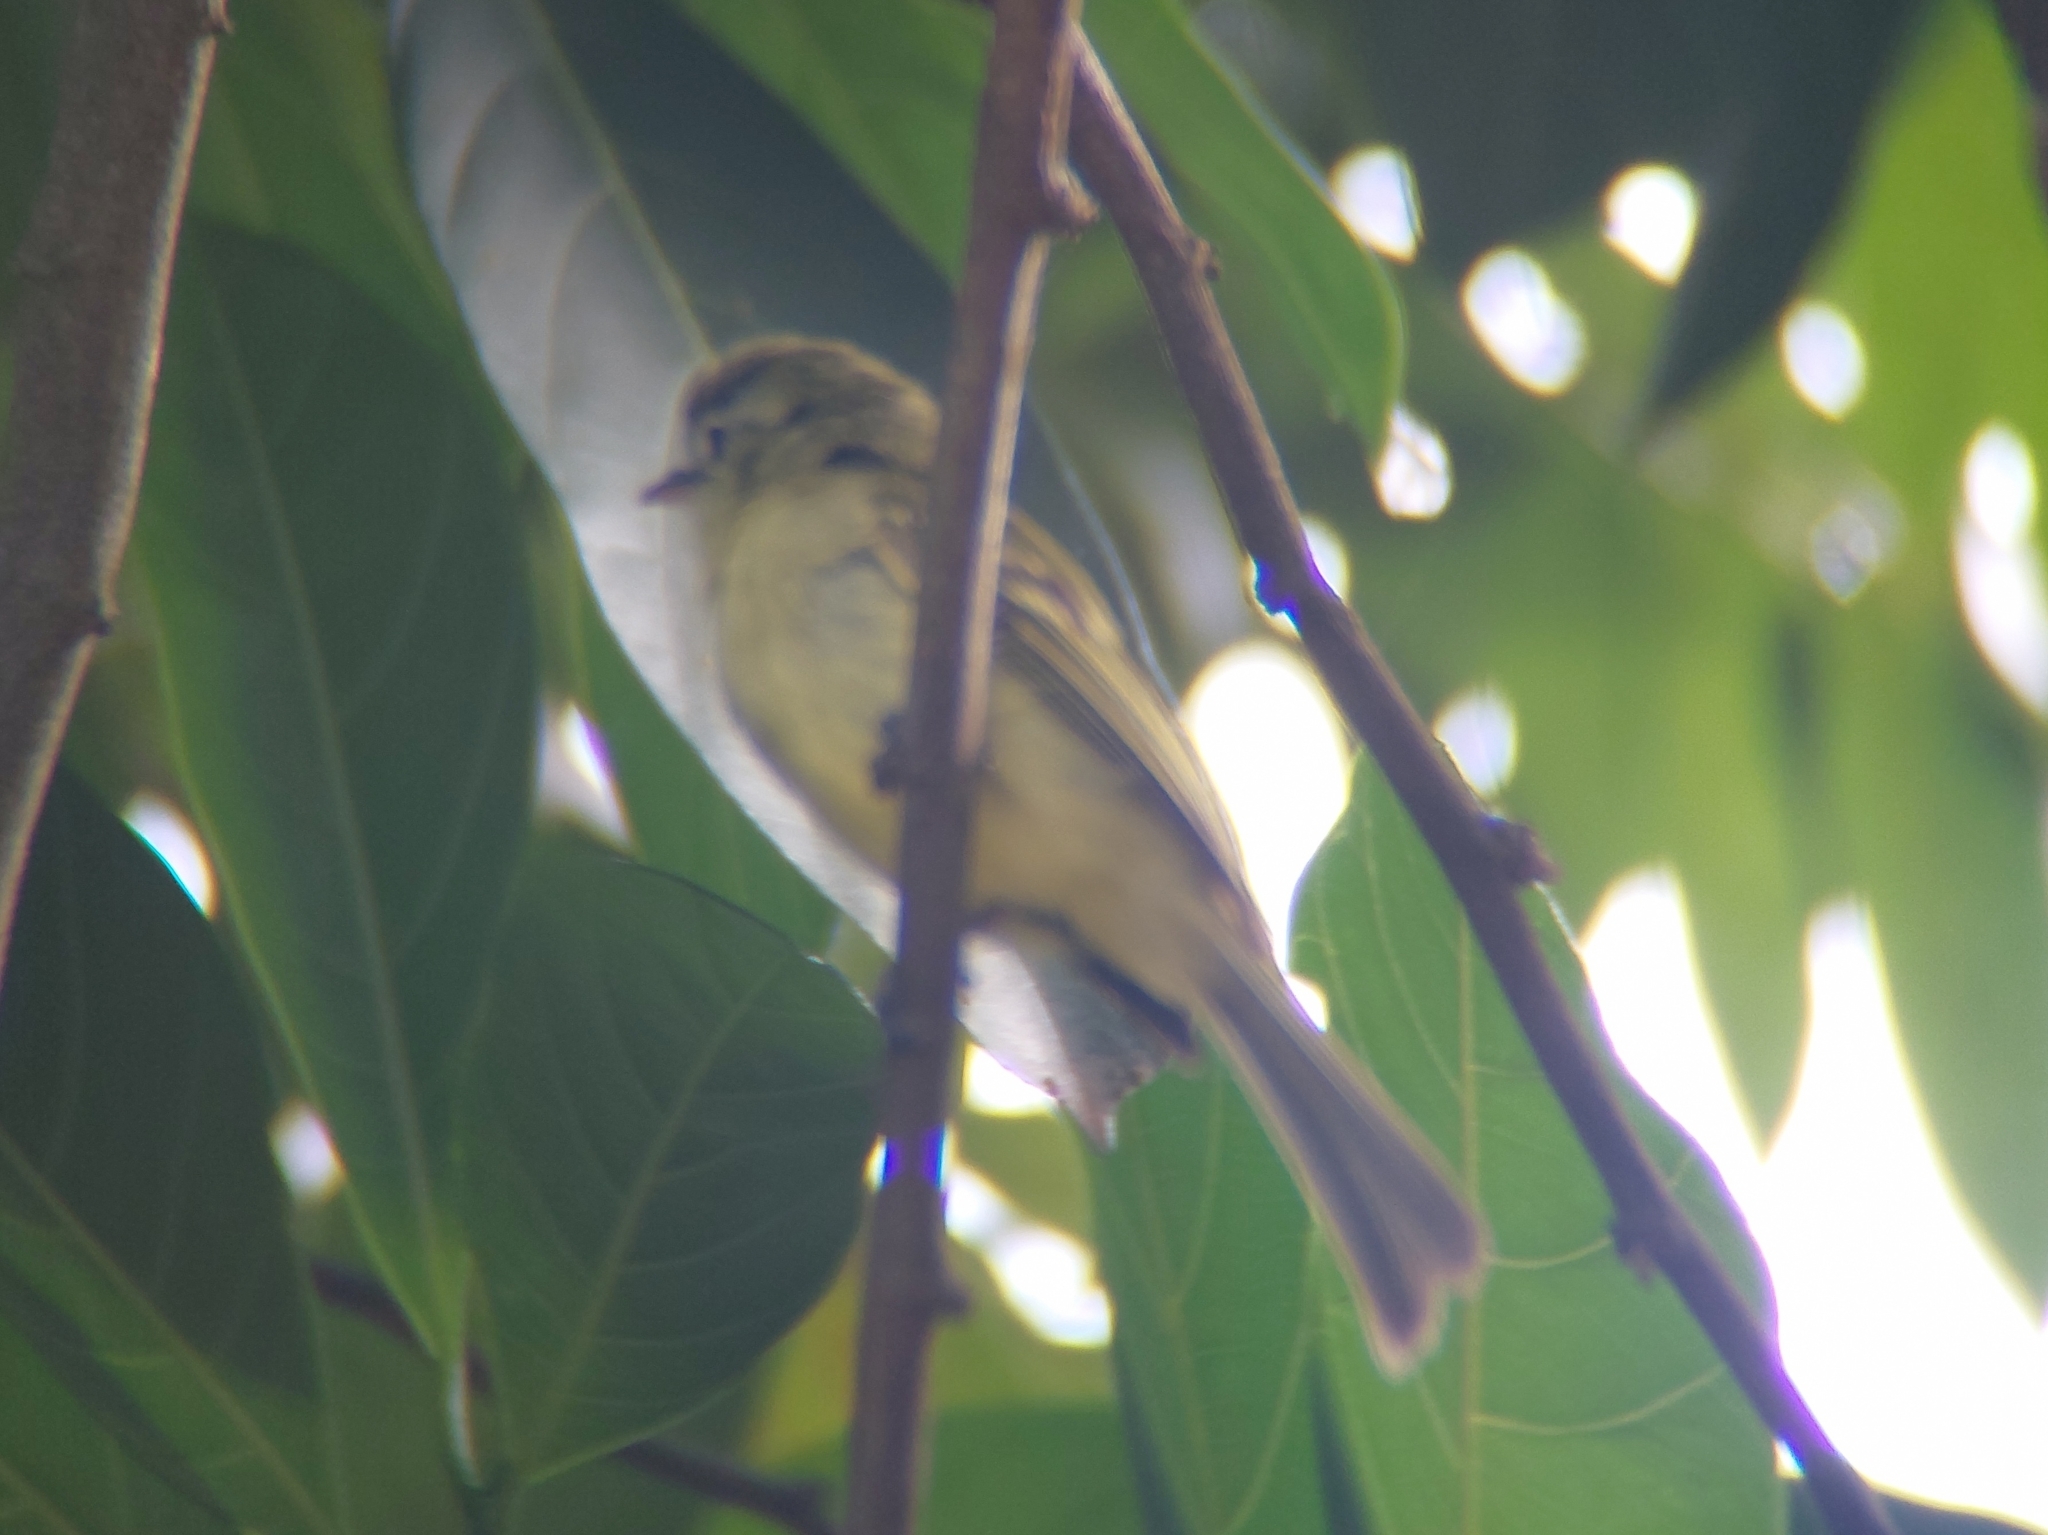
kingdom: Animalia
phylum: Chordata
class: Aves
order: Passeriformes
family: Tyrannidae
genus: Tolmomyias
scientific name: Tolmomyias sulphurescens
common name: Yellow-olive flycatcher
